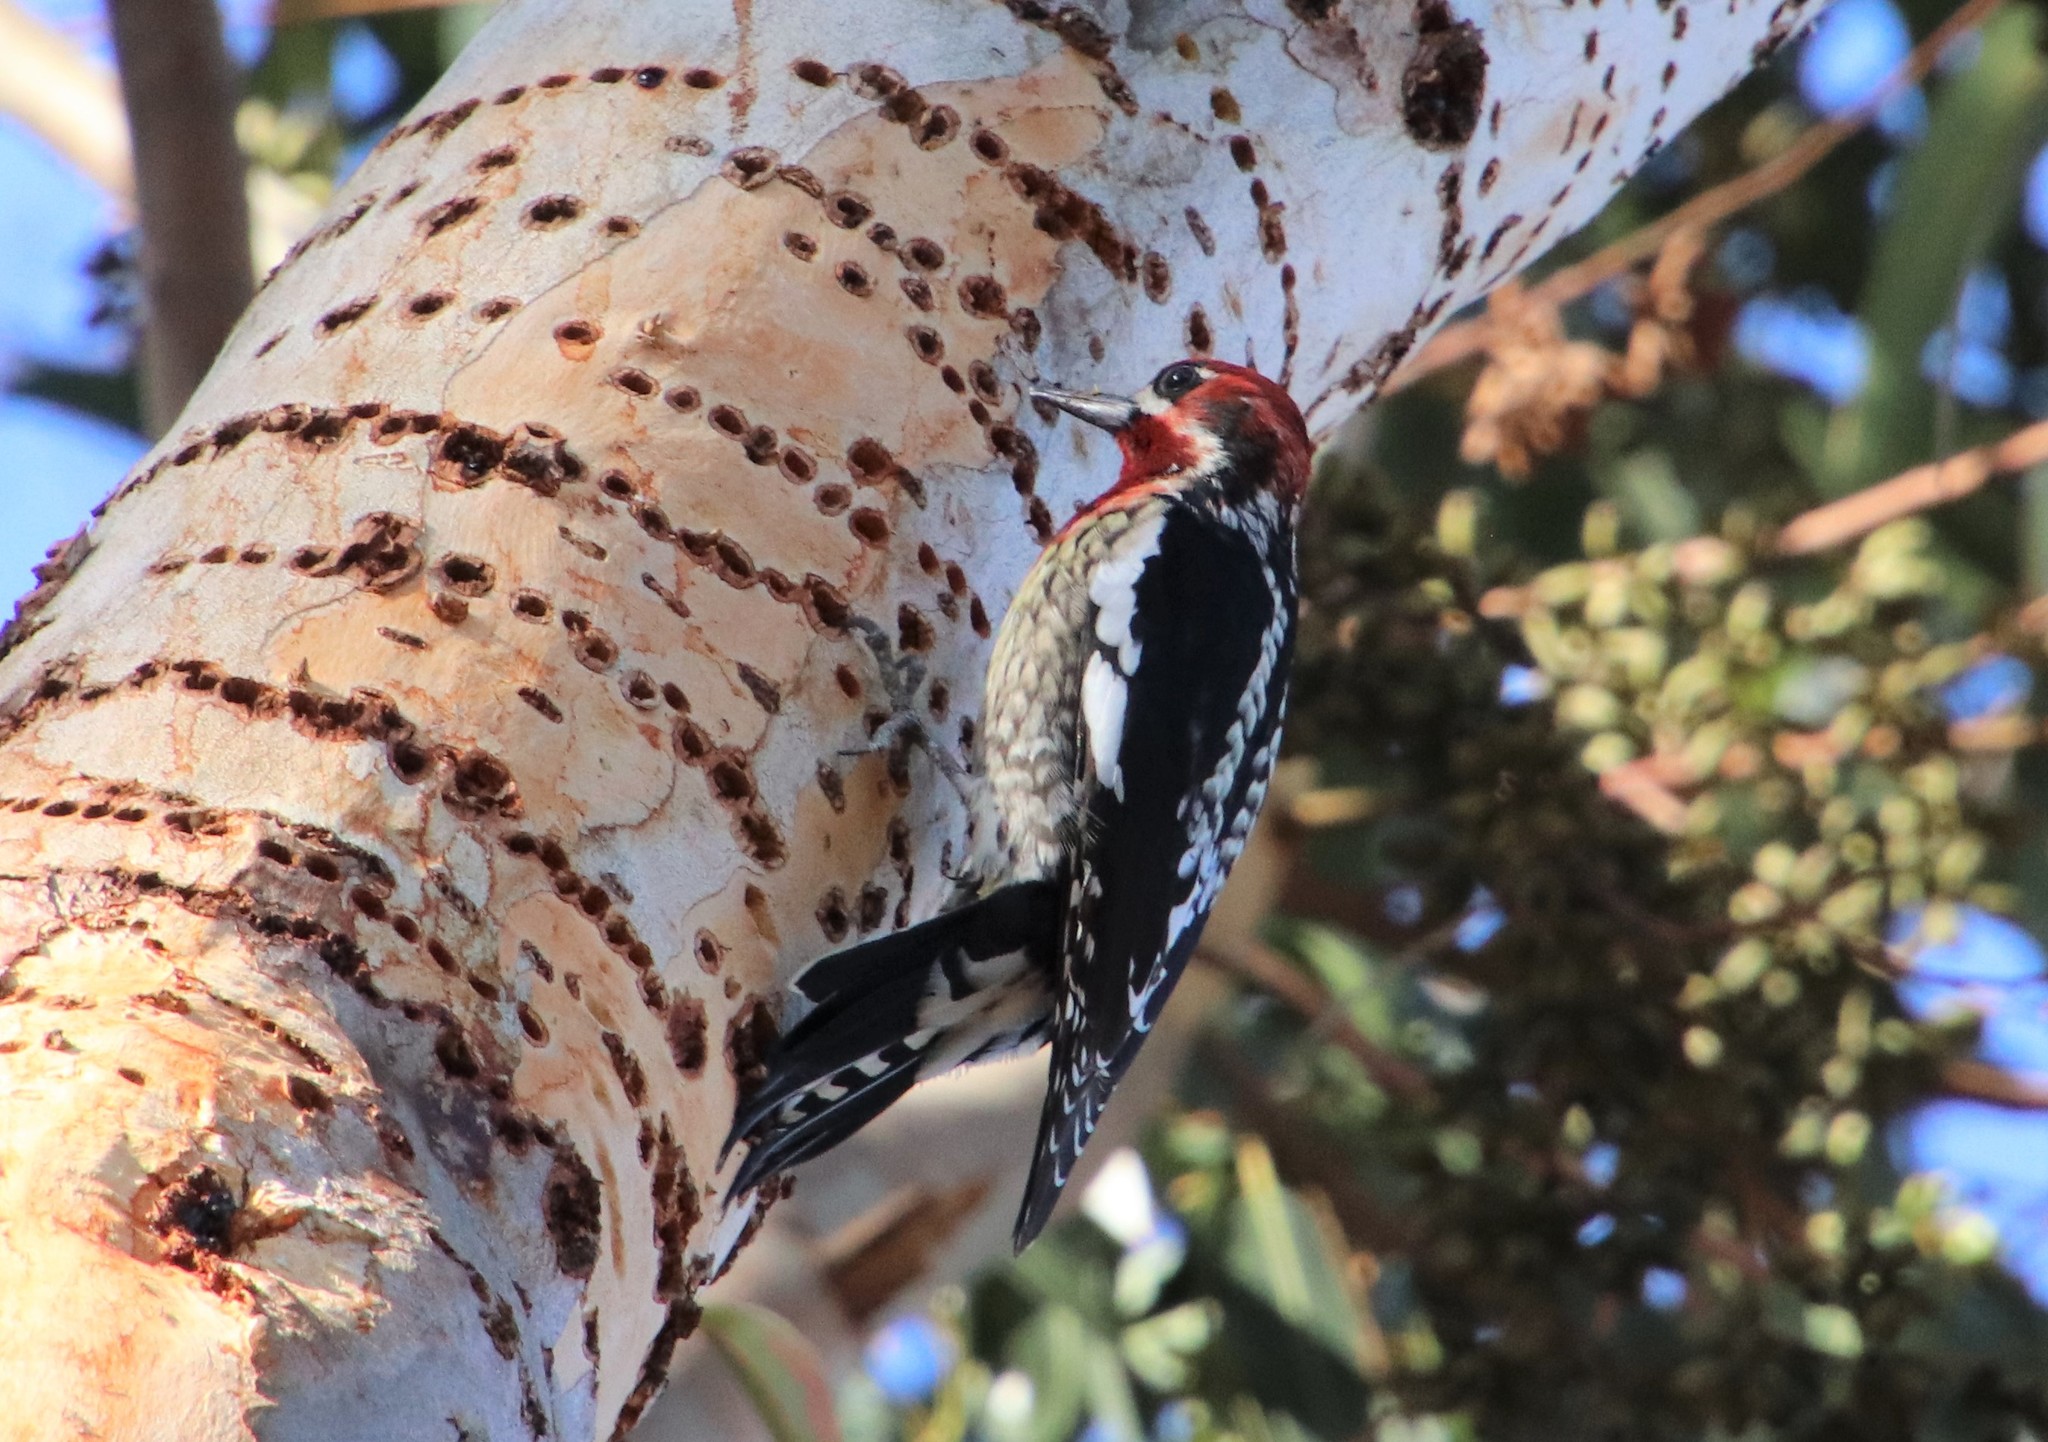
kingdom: Animalia
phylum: Chordata
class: Aves
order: Piciformes
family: Picidae
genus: Sphyrapicus
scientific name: Sphyrapicus
